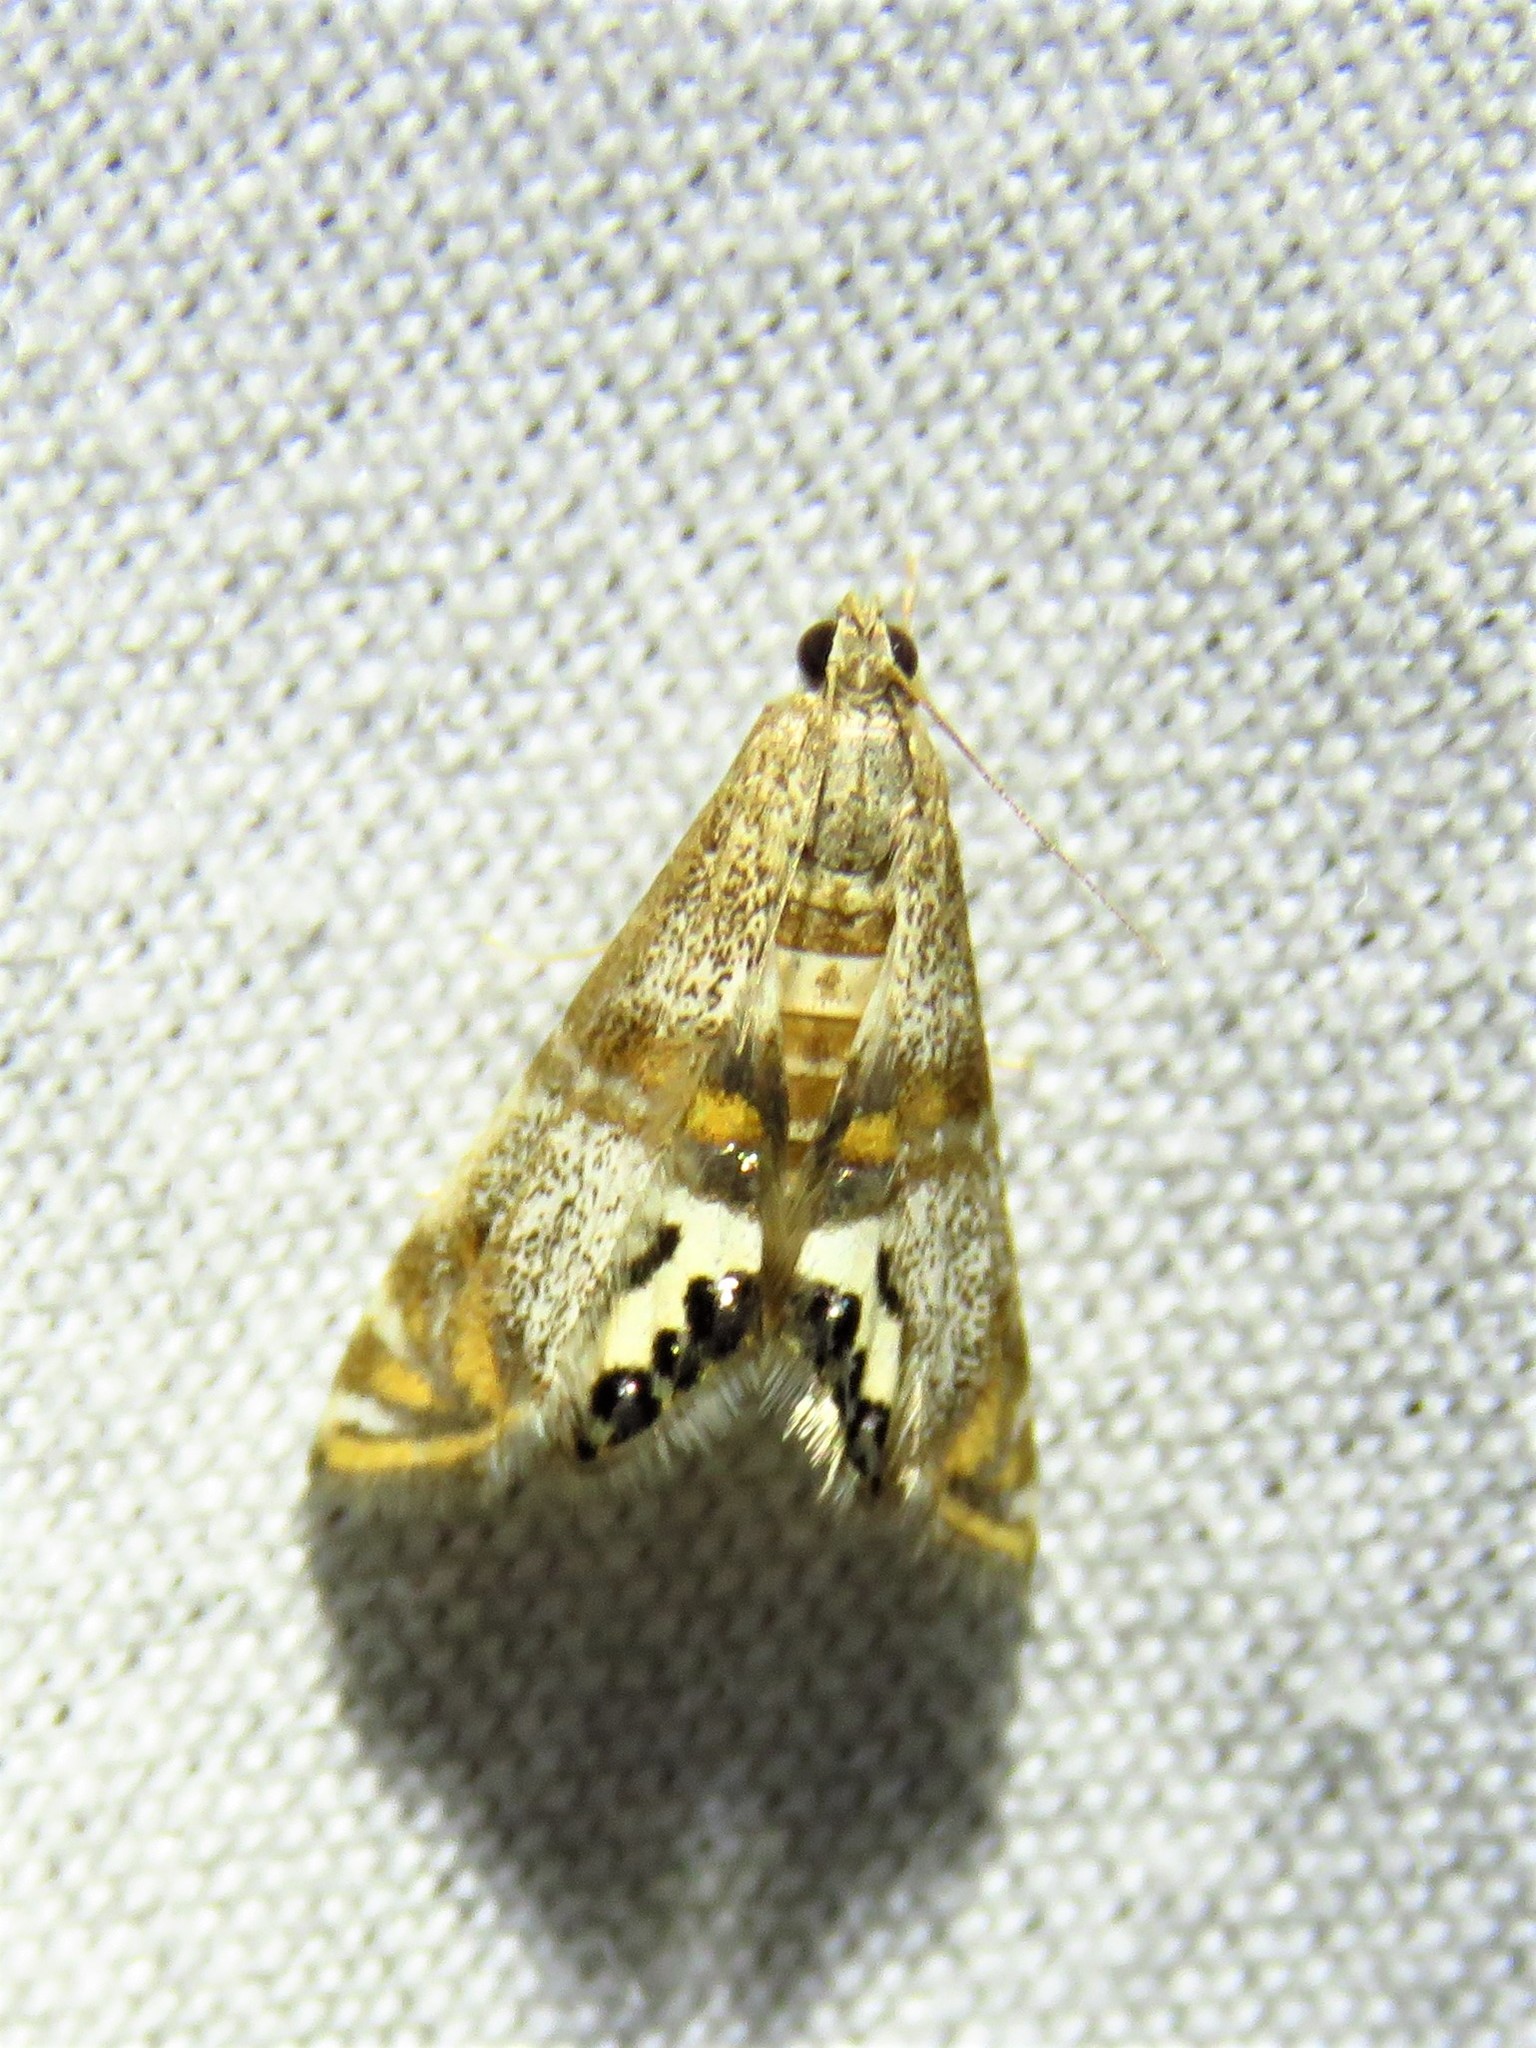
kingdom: Animalia
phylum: Arthropoda
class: Insecta
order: Lepidoptera
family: Crambidae
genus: Petrophila
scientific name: Petrophila bifascialis
